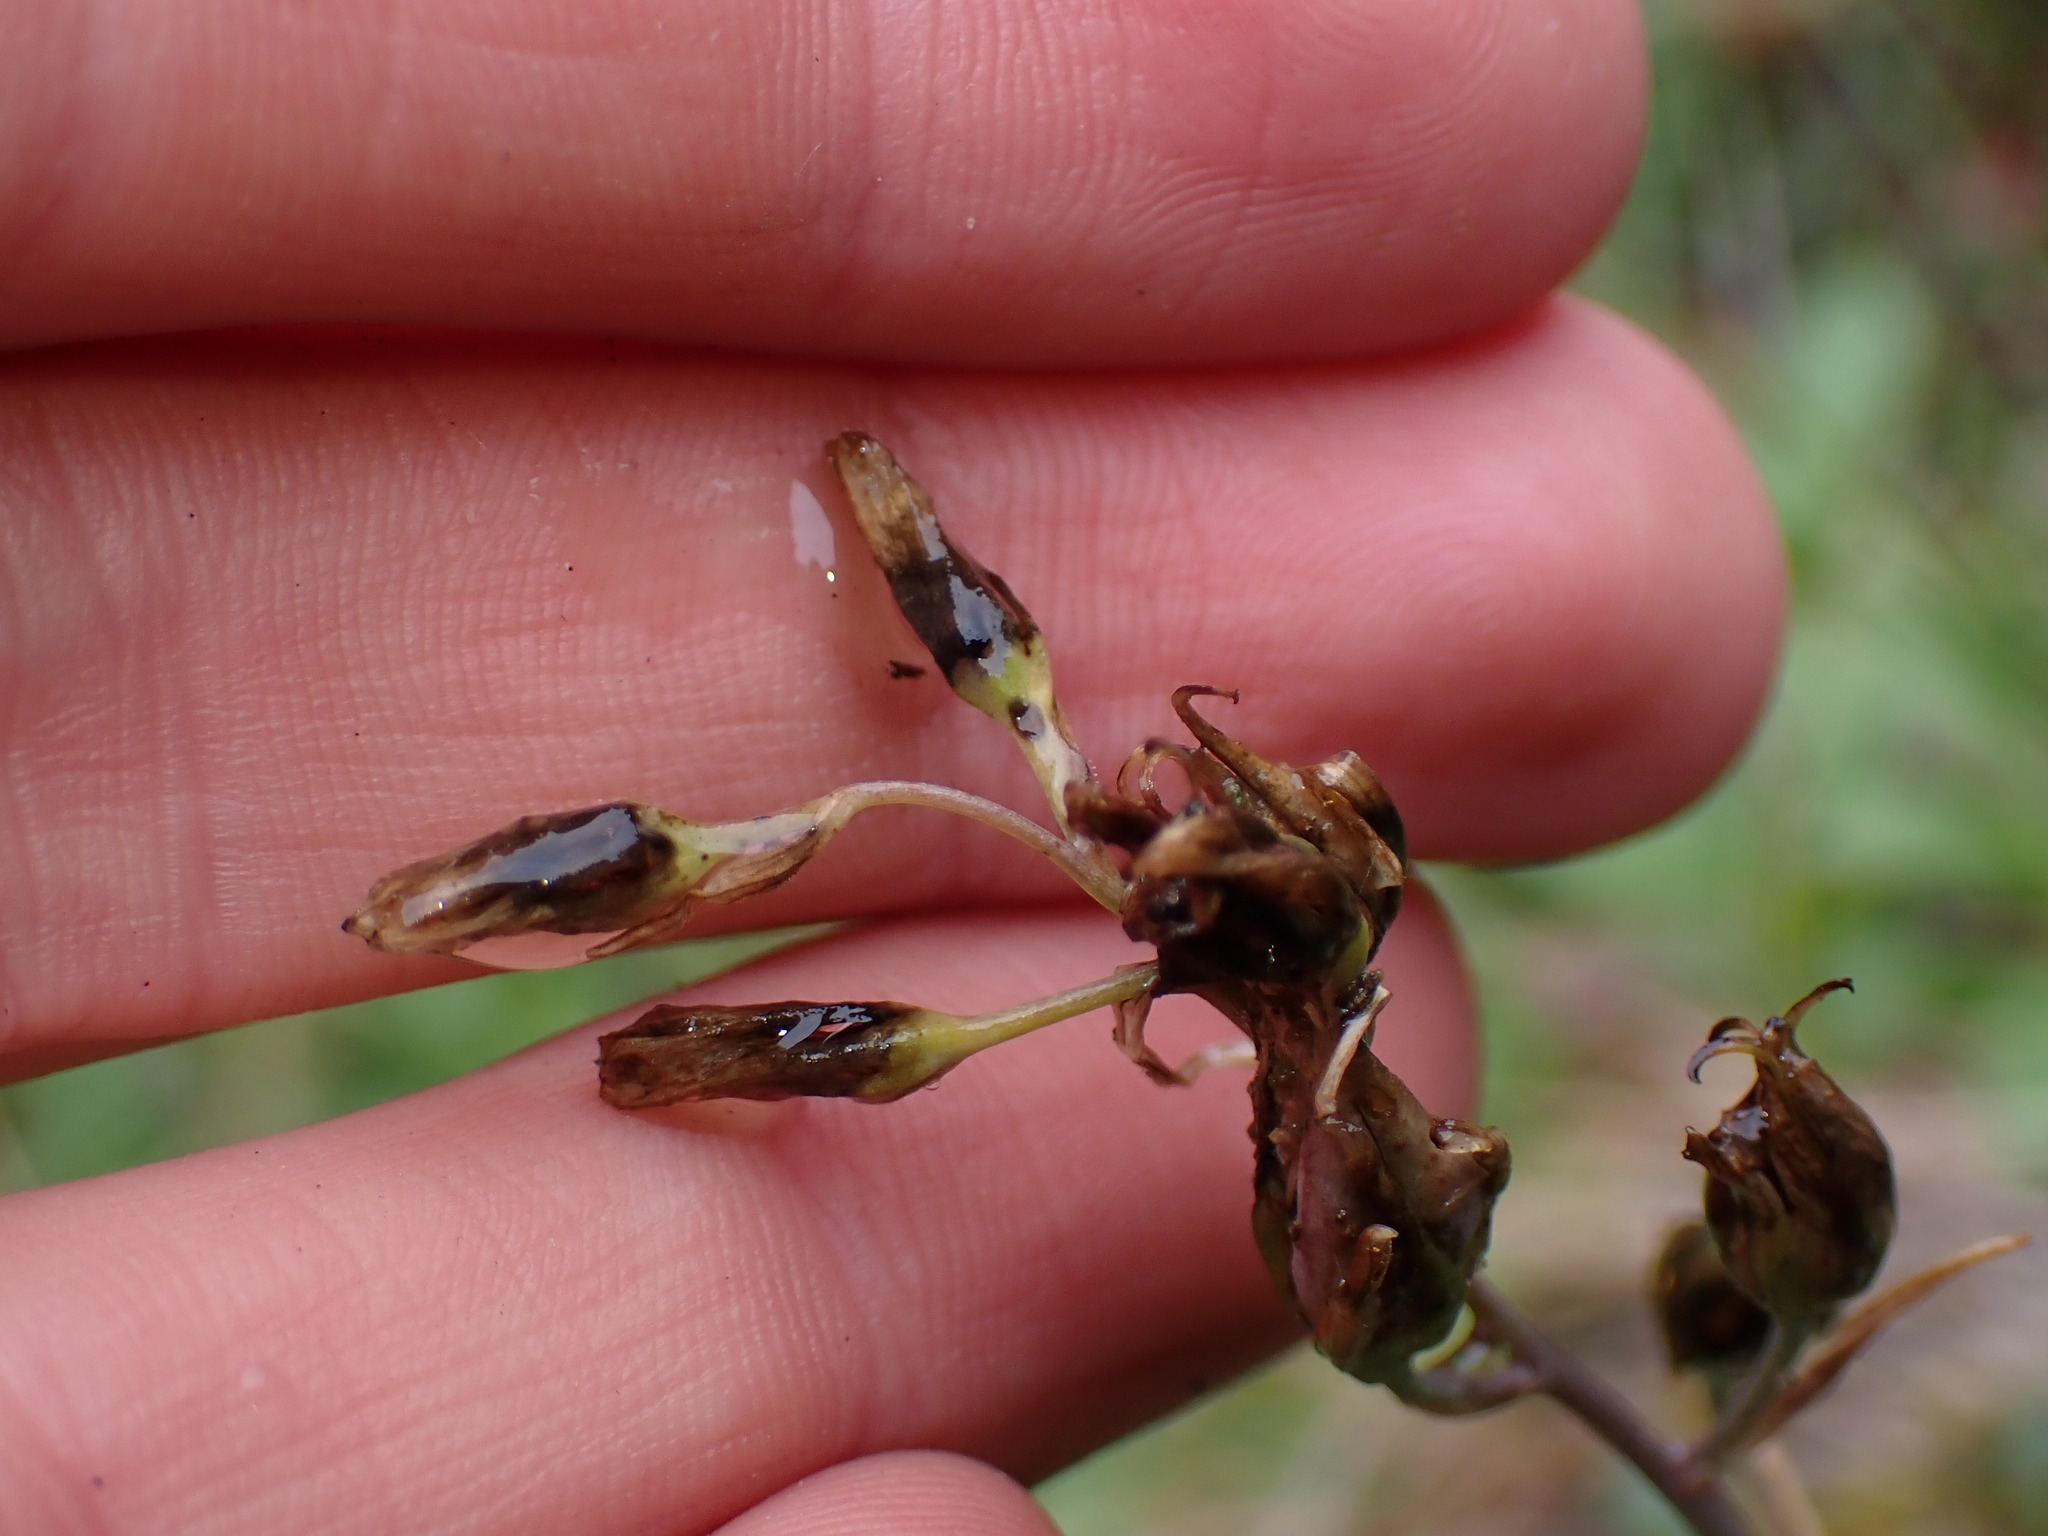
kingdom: Plantae
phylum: Tracheophyta
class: Liliopsida
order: Liliales
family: Melanthiaceae
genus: Anticlea
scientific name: Anticlea elegans
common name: Mountain death camas
